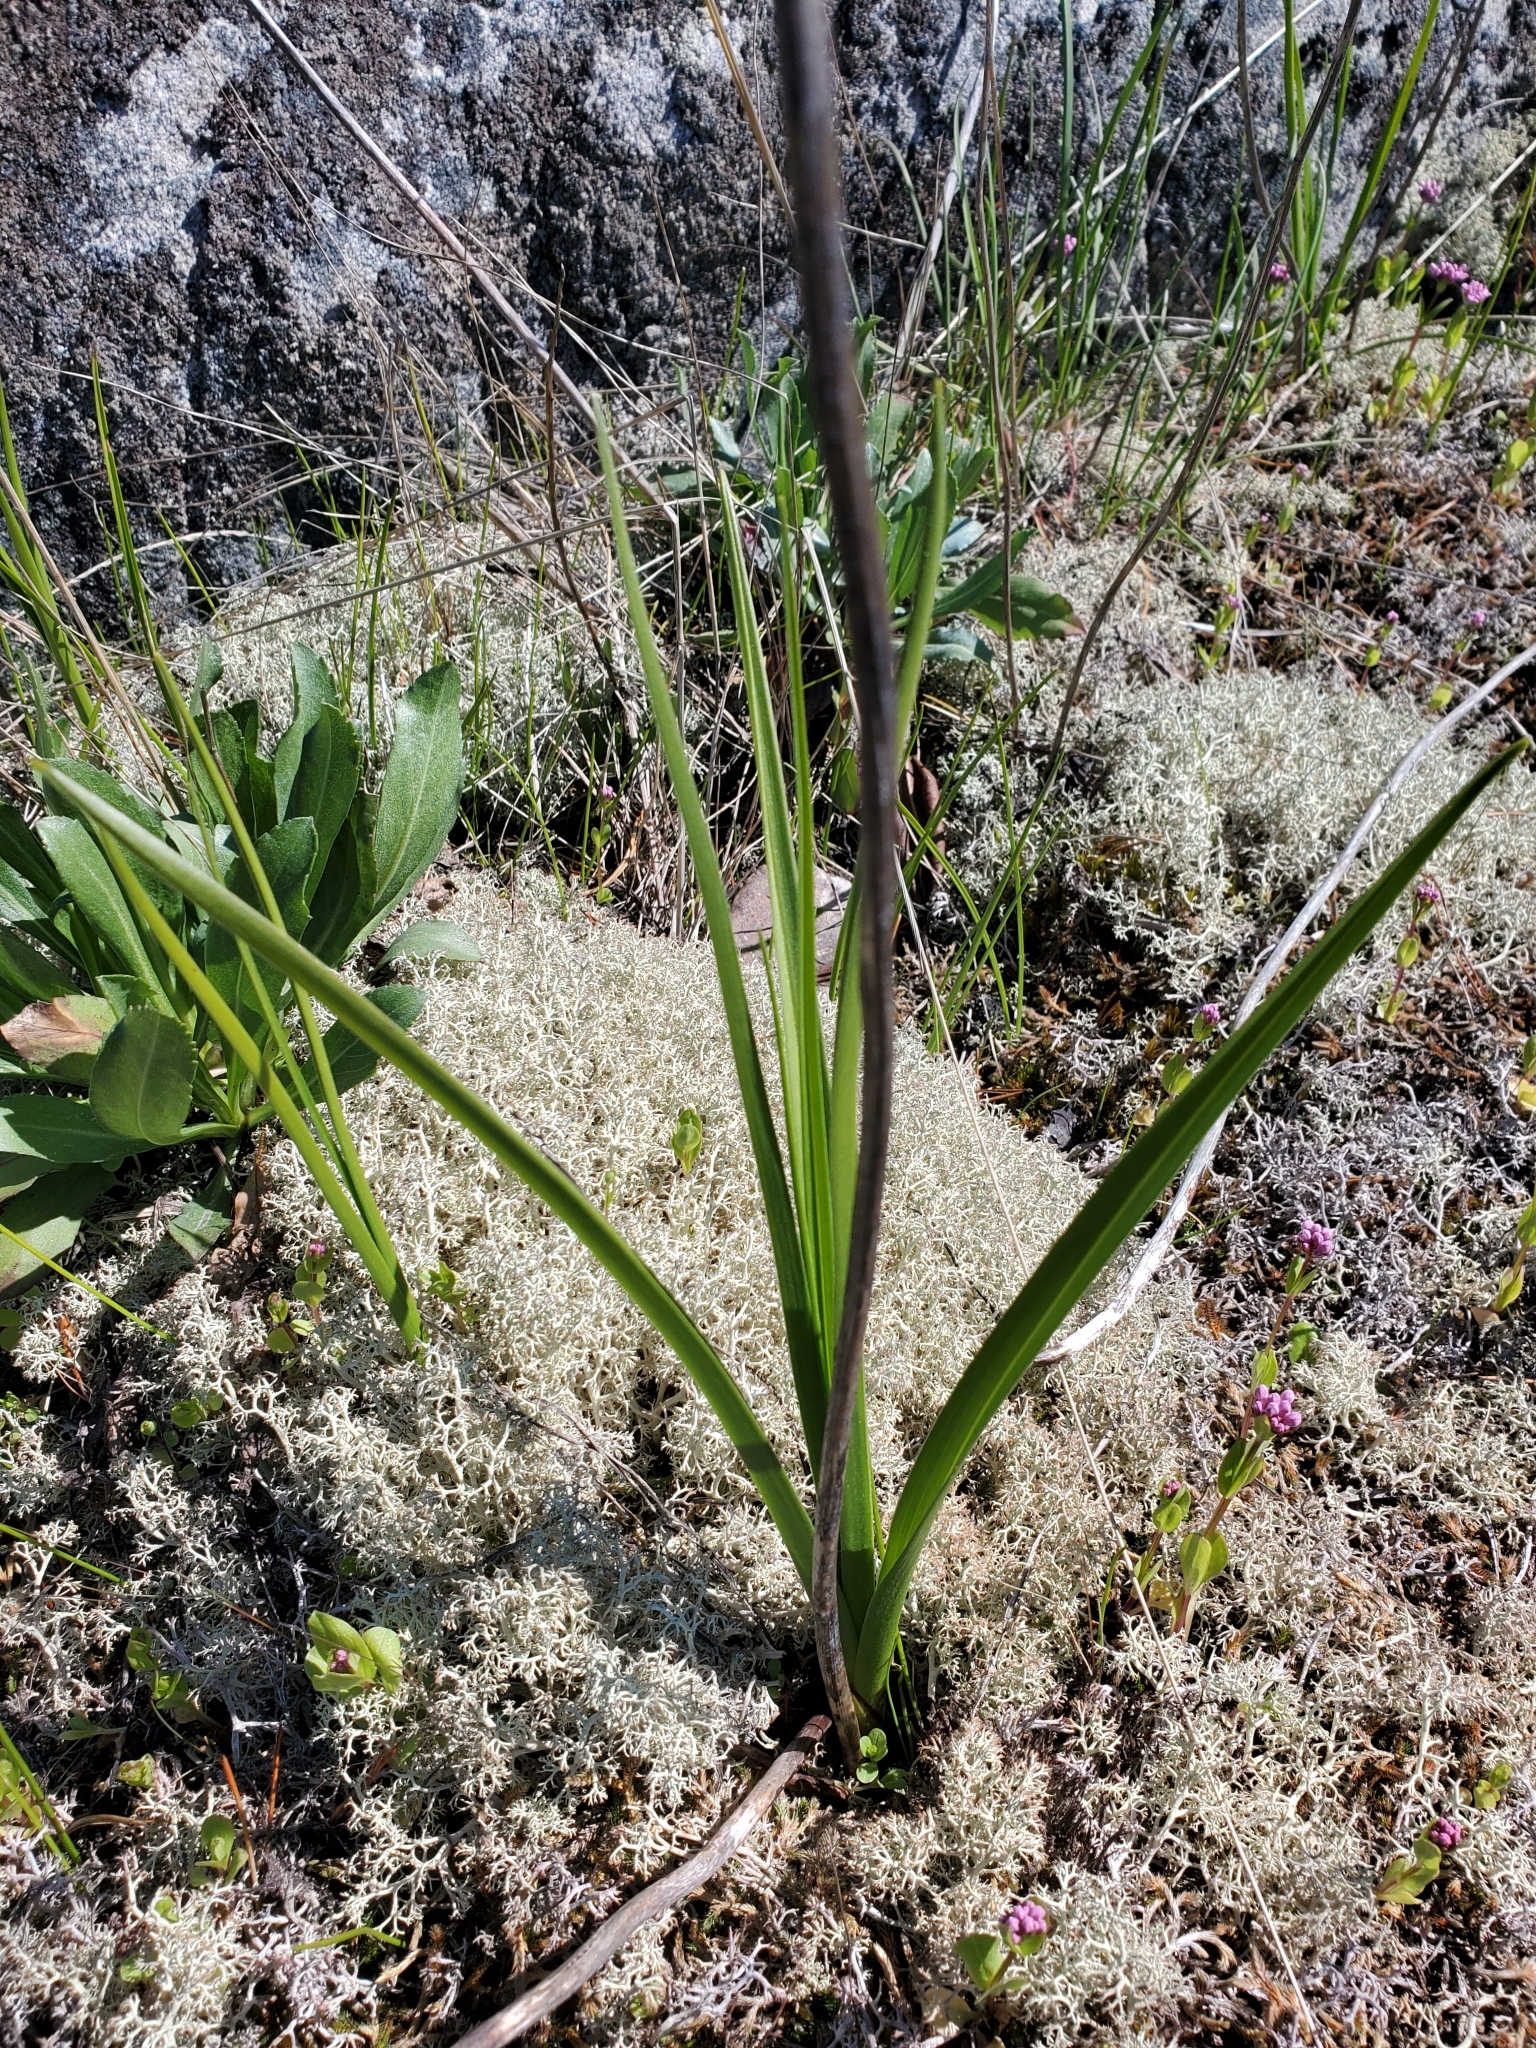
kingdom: Plantae
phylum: Tracheophyta
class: Liliopsida
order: Liliales
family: Melanthiaceae
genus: Toxicoscordion
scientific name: Toxicoscordion venenosum
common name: Meadow death camas
